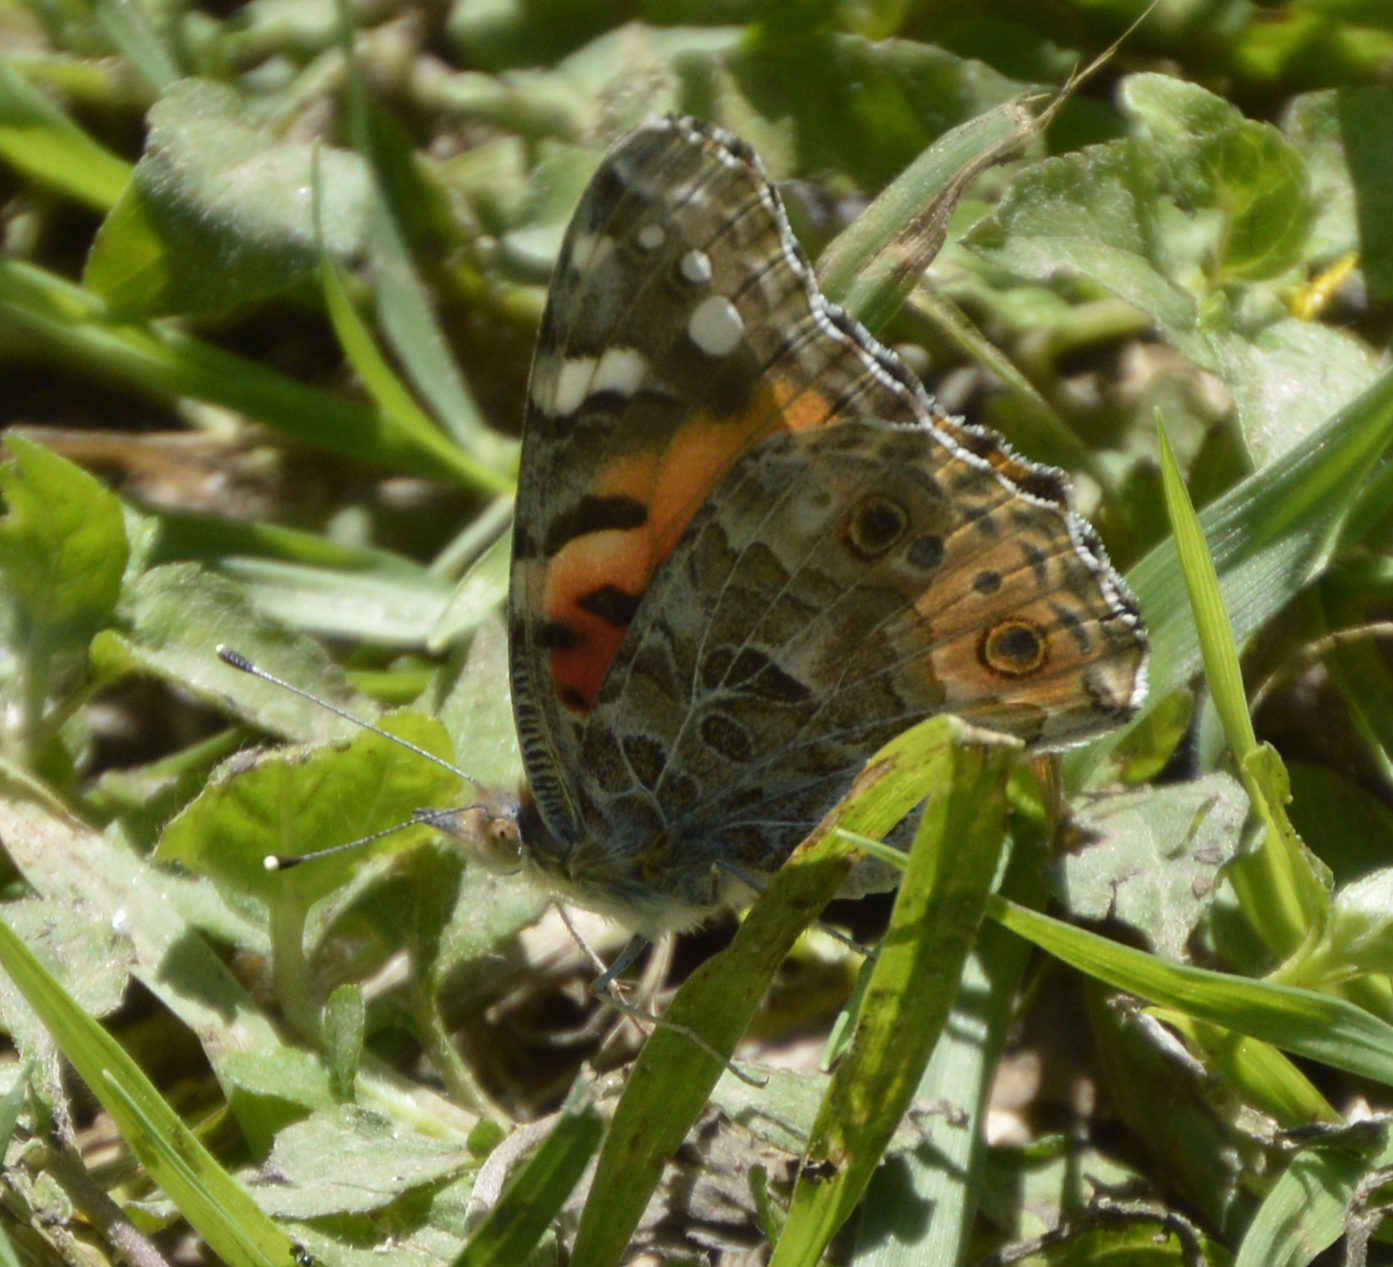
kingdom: Animalia
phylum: Arthropoda
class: Insecta
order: Lepidoptera
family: Nymphalidae
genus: Vanessa
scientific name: Vanessa cardui
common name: Painted lady
